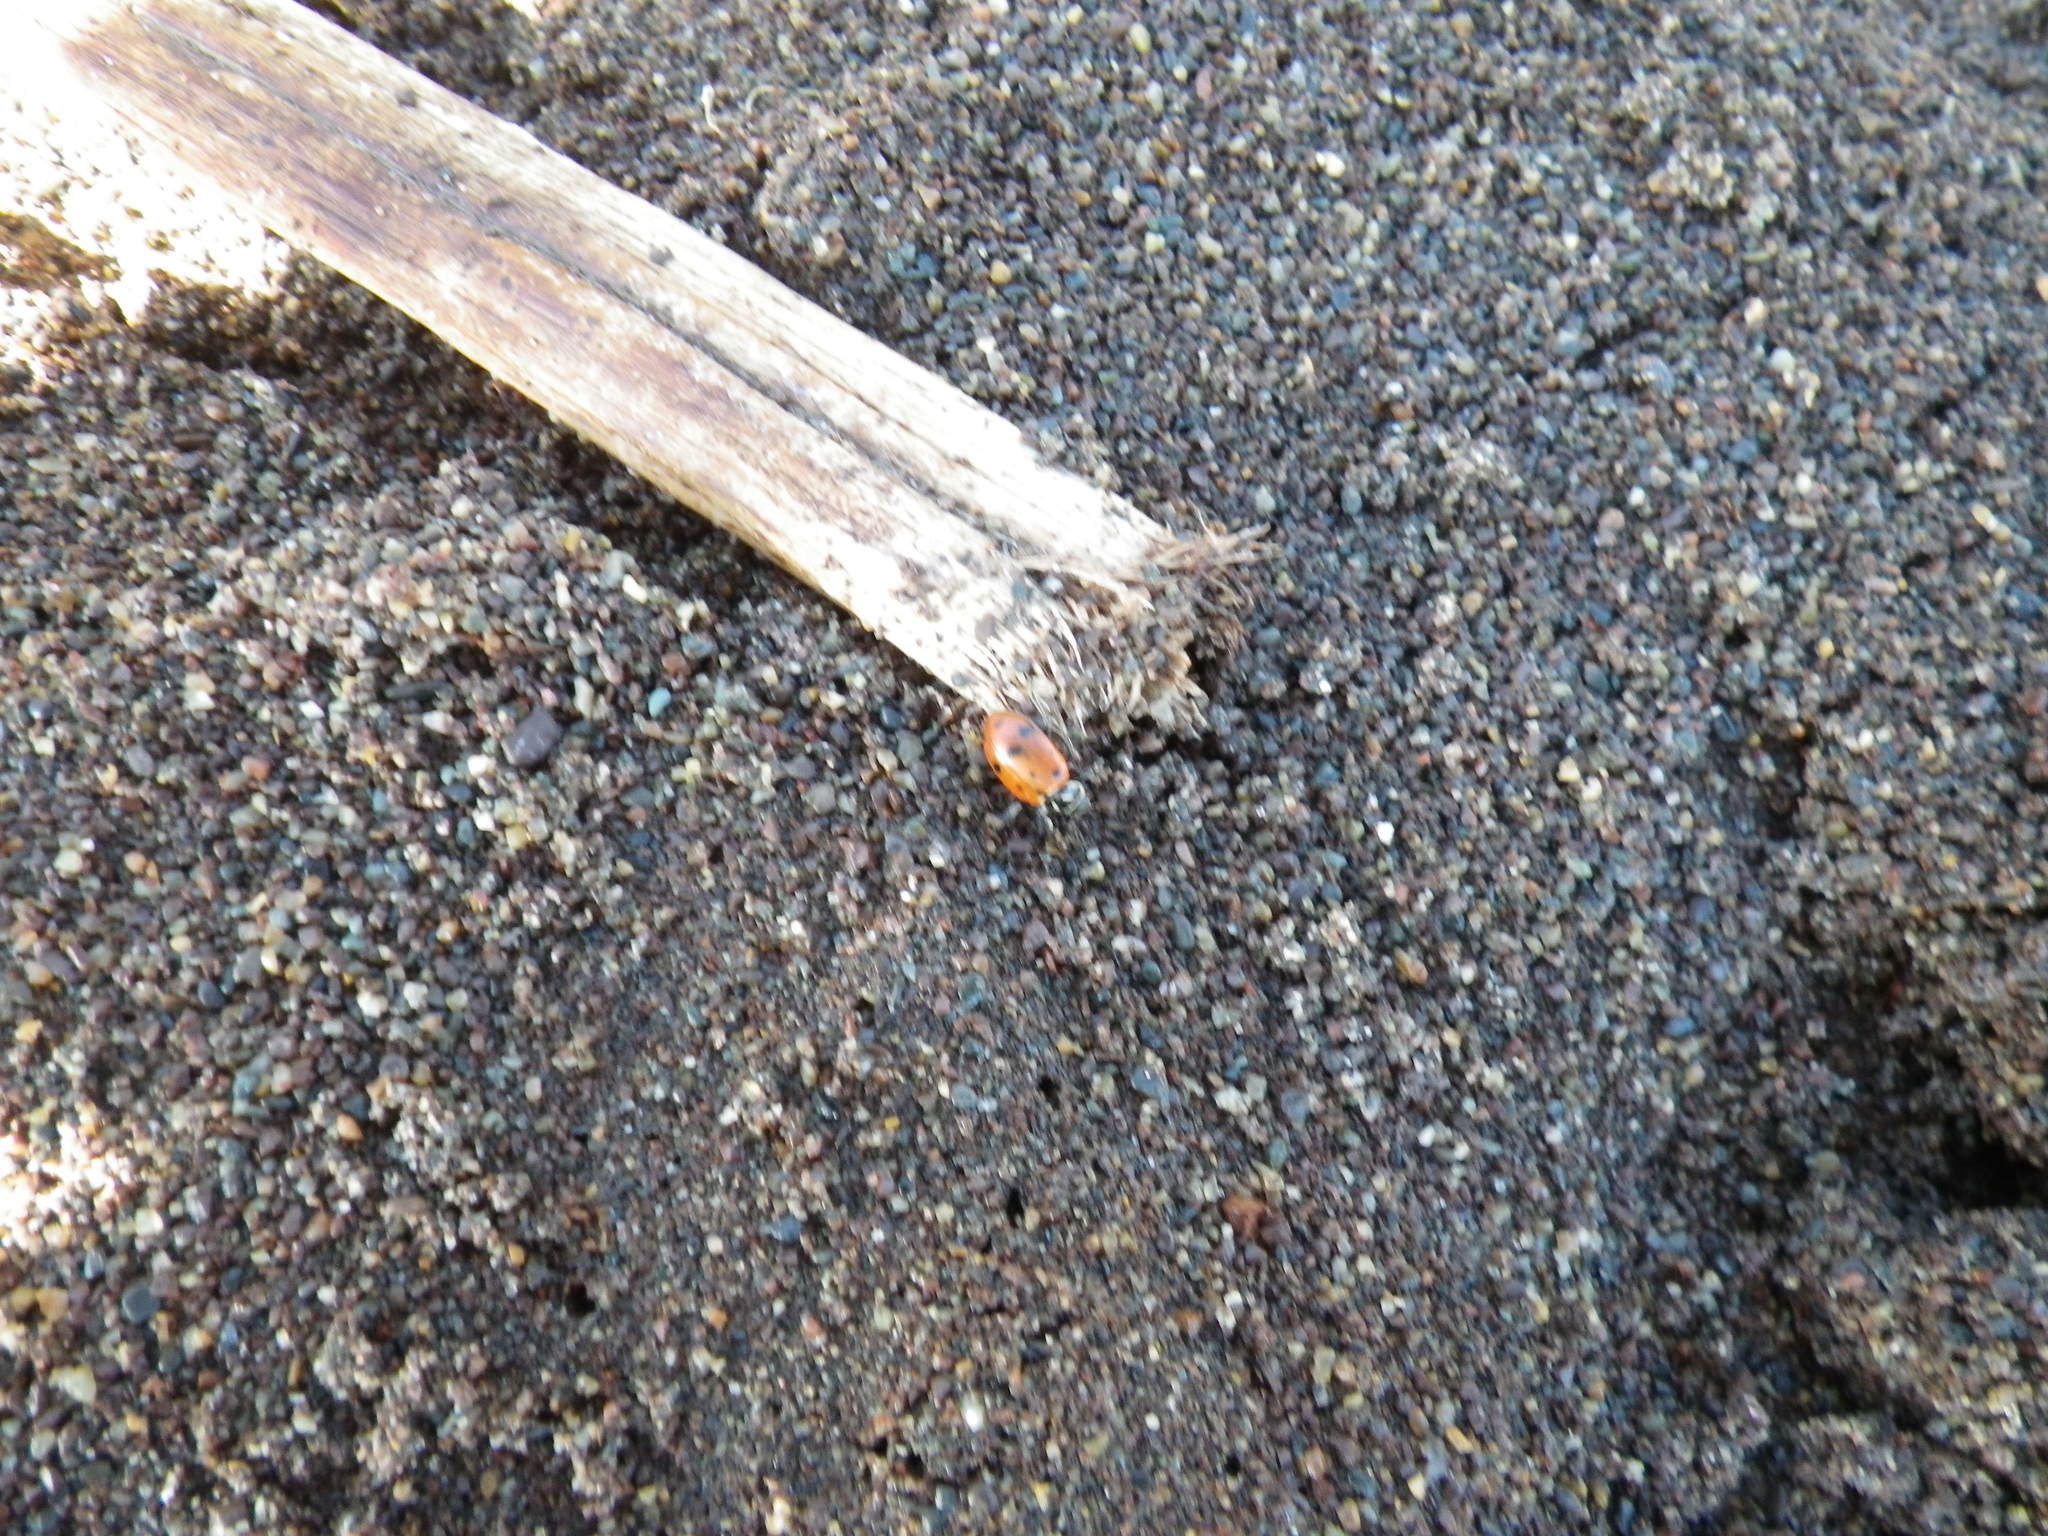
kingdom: Animalia
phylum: Arthropoda
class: Insecta
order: Coleoptera
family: Coccinellidae
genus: Hippodamia
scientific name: Hippodamia convergens
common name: Convergent lady beetle
